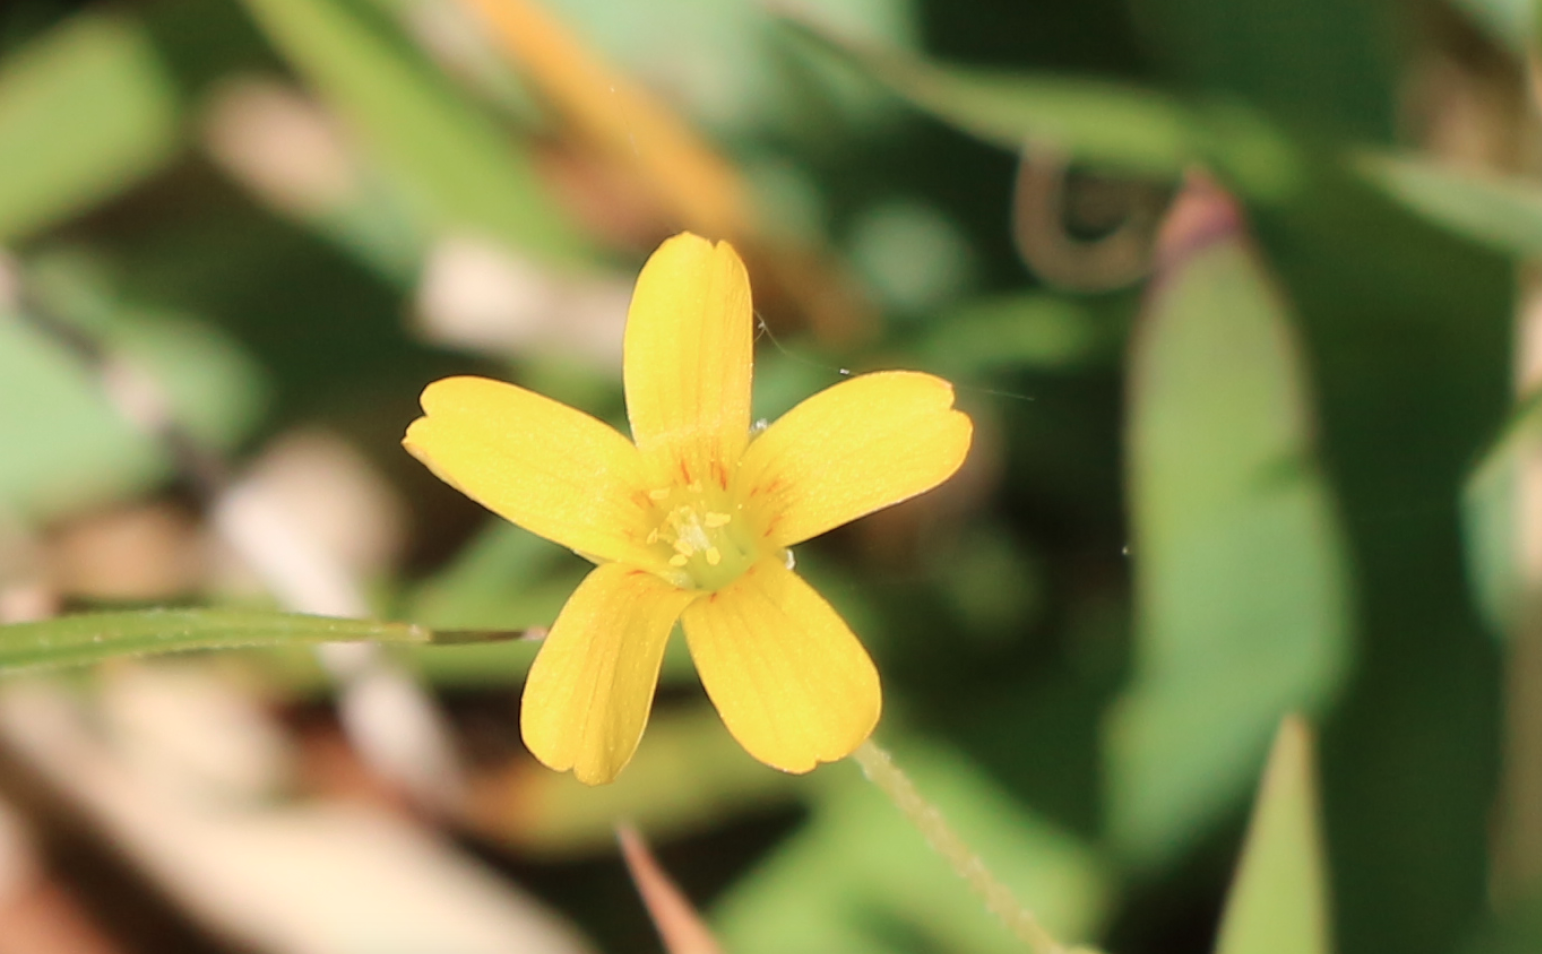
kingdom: Plantae
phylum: Tracheophyta
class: Magnoliopsida
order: Oxalidales
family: Oxalidaceae
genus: Oxalis
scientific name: Oxalis corniculata
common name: Procumbent yellow-sorrel
